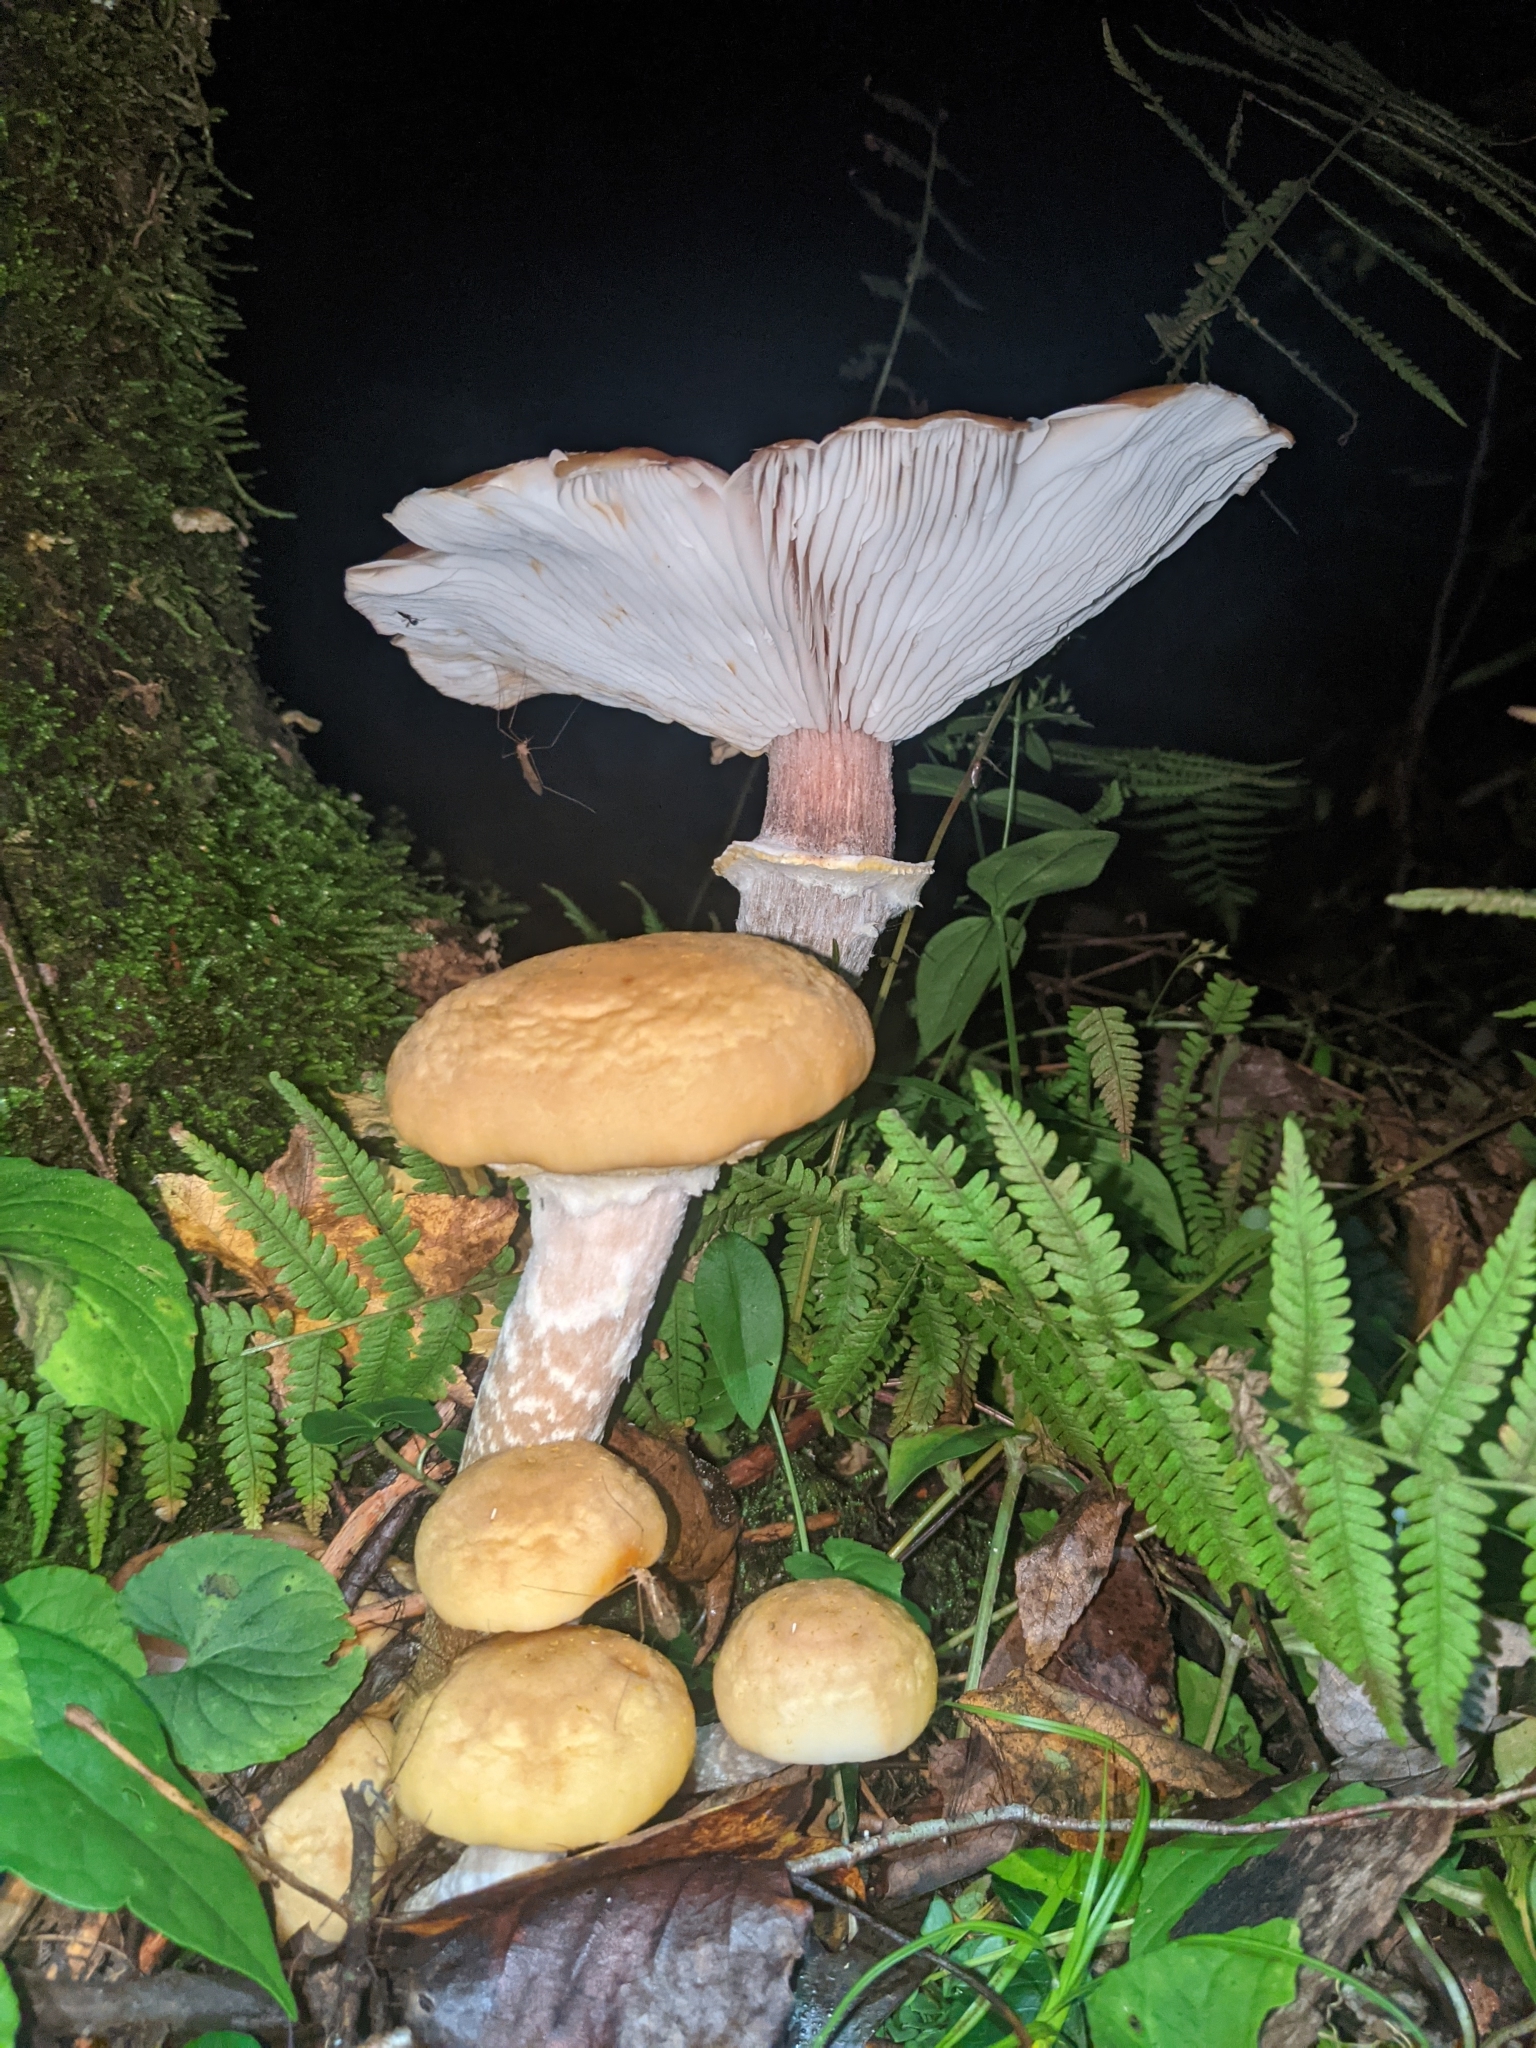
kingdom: Fungi
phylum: Basidiomycota
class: Agaricomycetes
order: Agaricales
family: Physalacriaceae
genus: Armillaria
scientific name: Armillaria mellea
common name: Honey fungus
